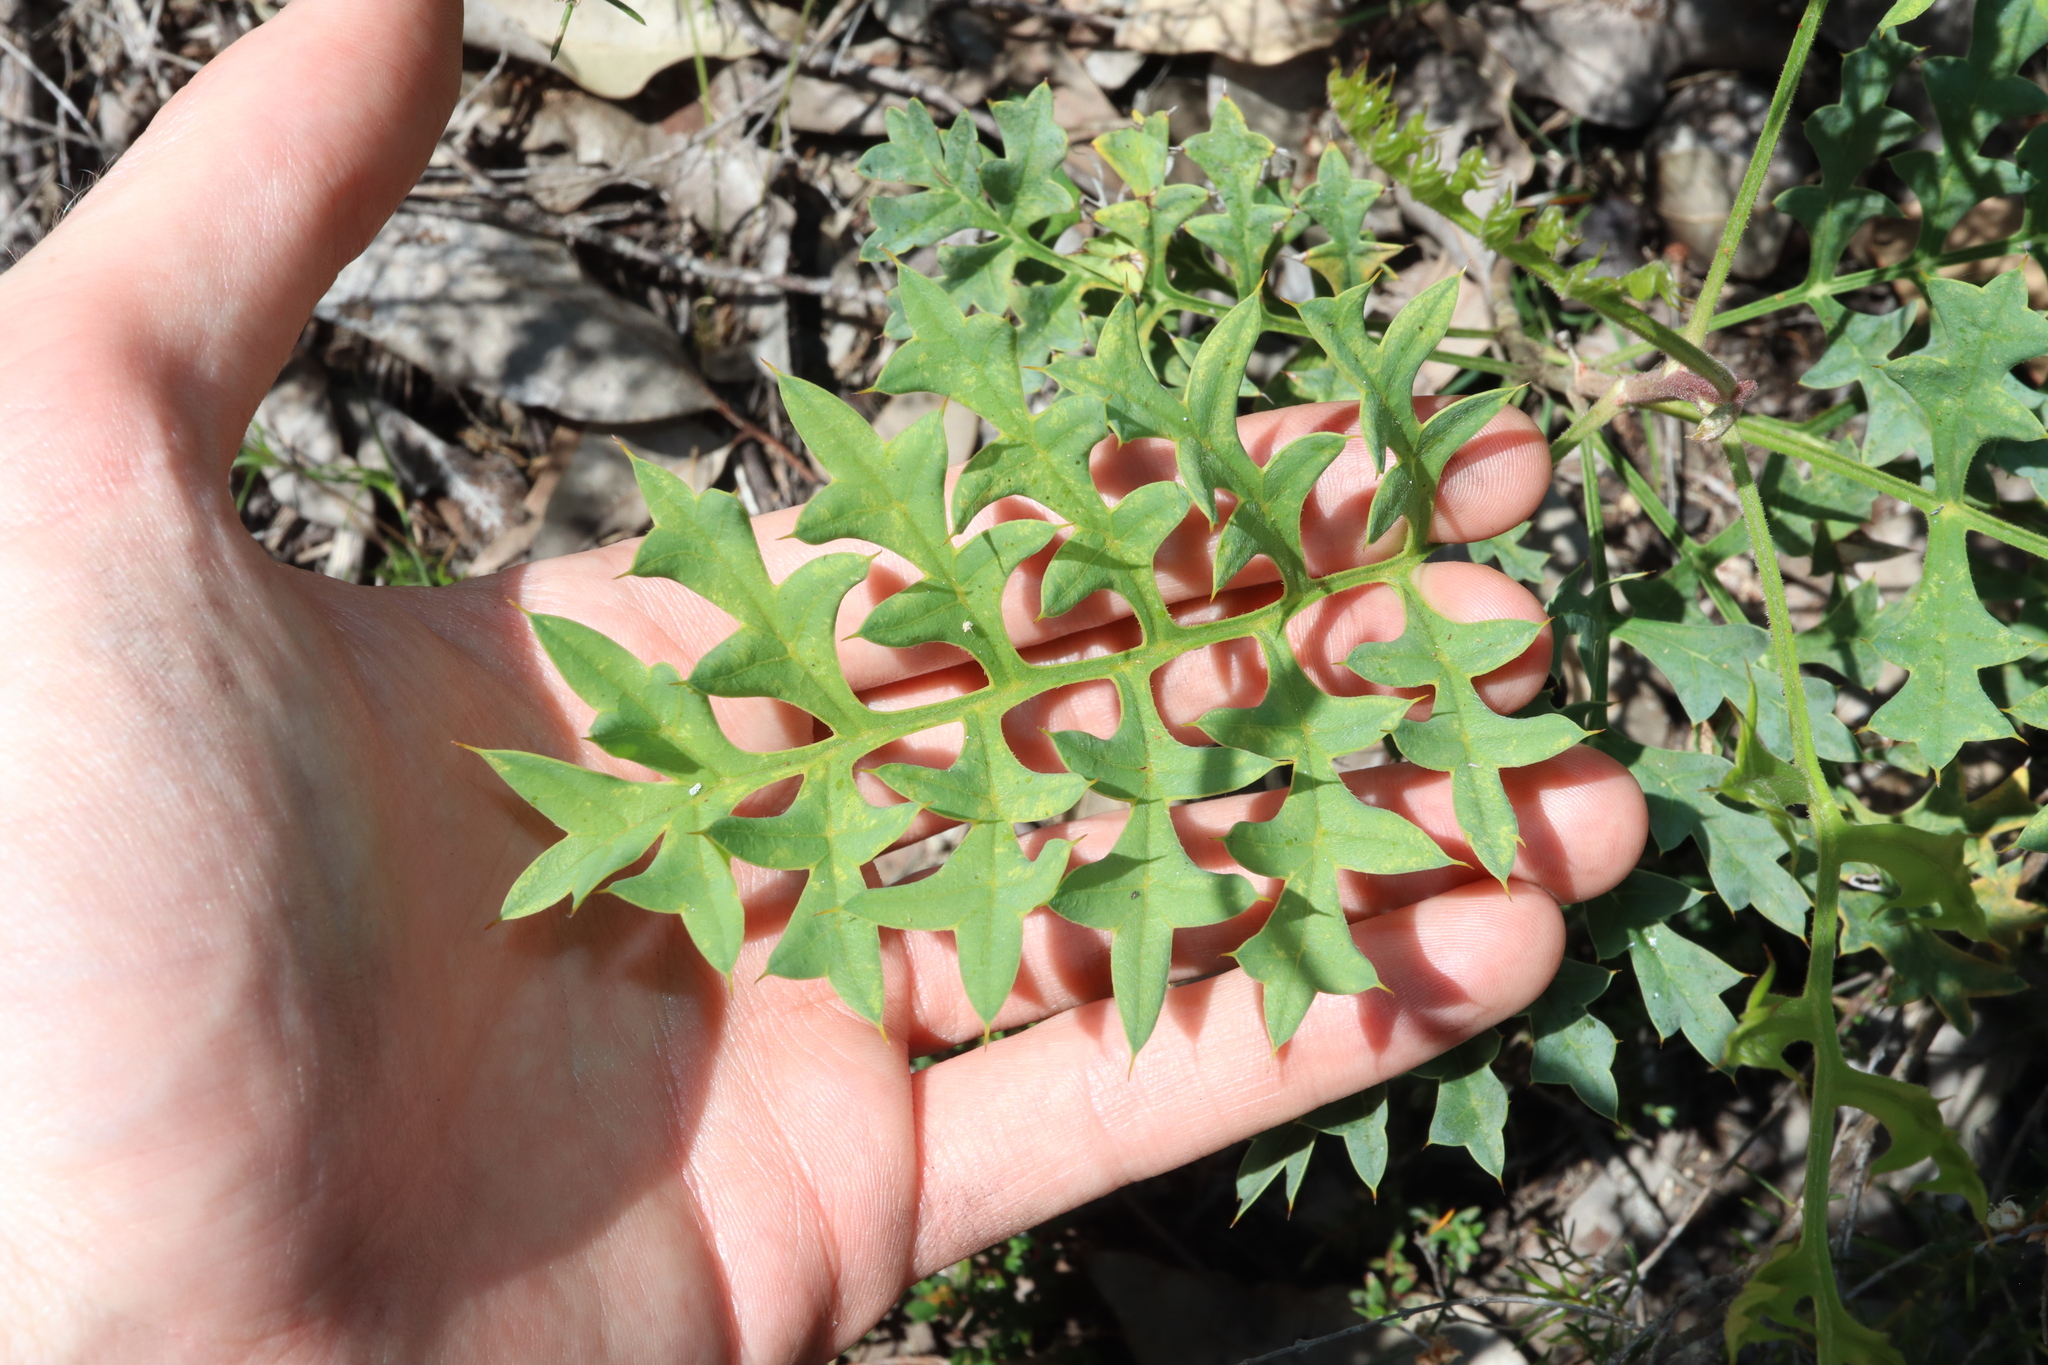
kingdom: Plantae
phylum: Tracheophyta
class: Magnoliopsida
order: Proteales
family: Proteaceae
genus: Grevillea
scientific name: Grevillea bipinnatifida
